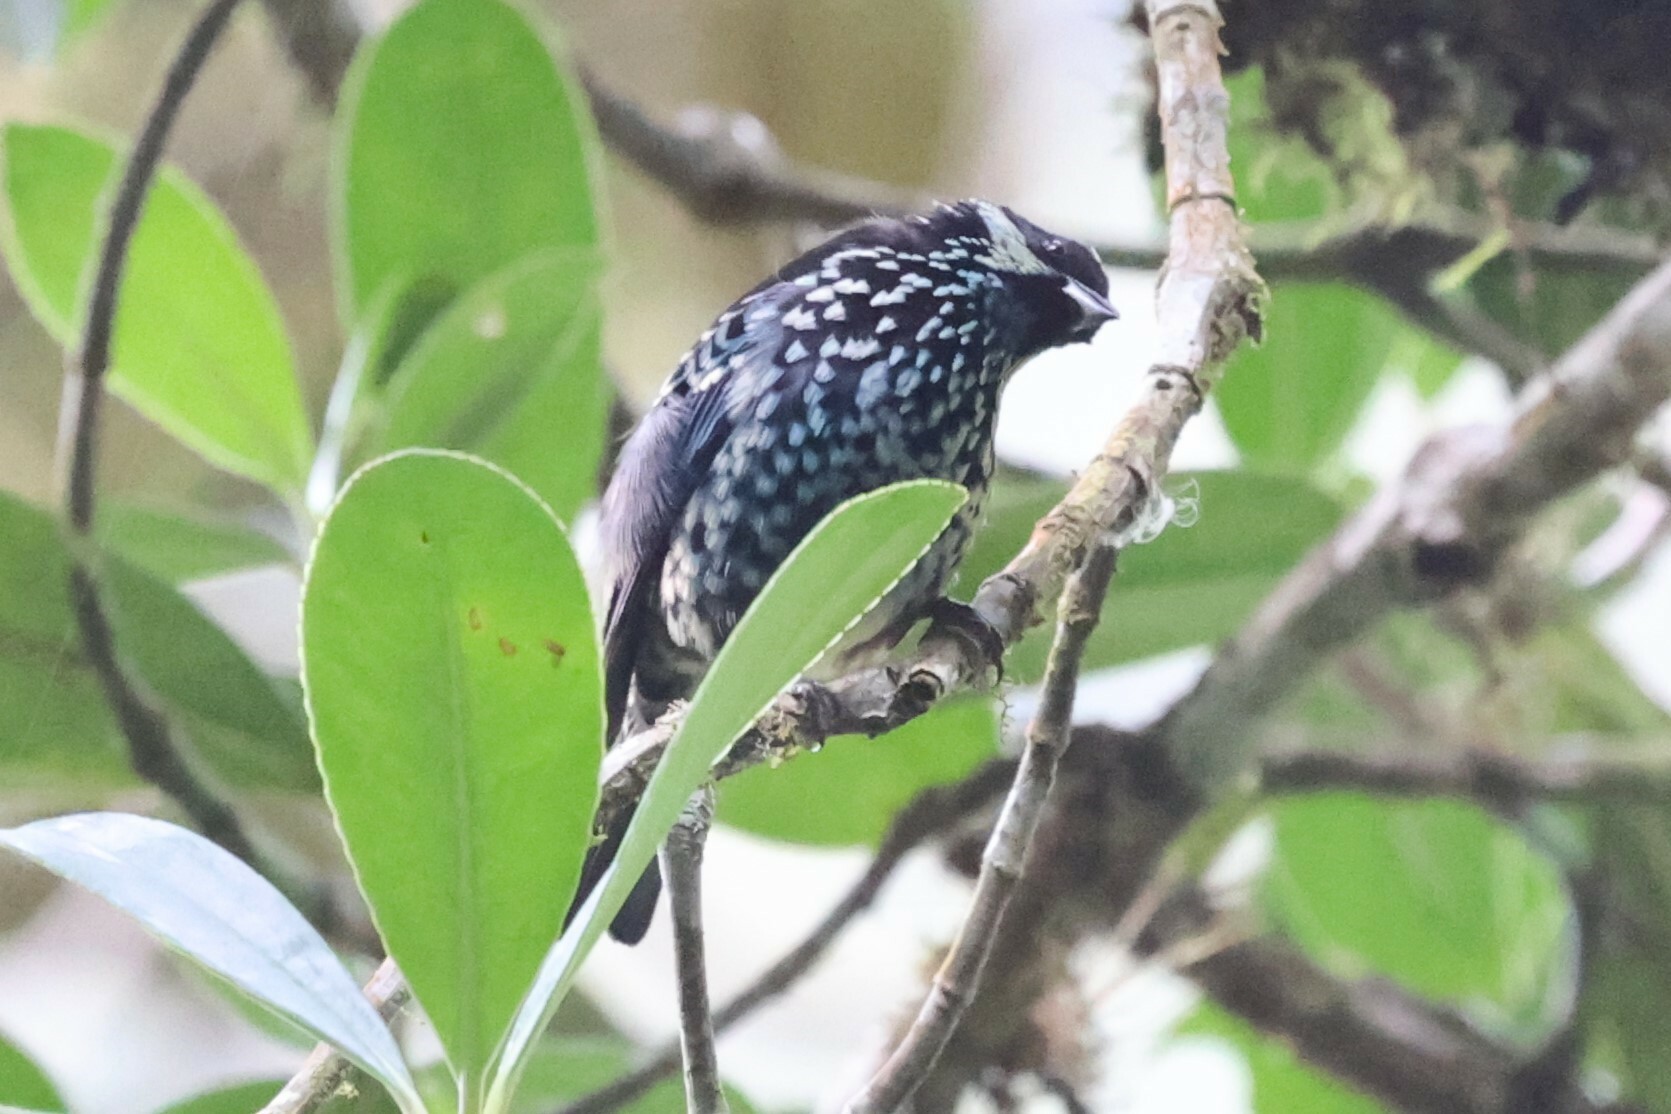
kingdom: Animalia
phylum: Chordata
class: Aves
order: Passeriformes
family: Thraupidae
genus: Tangara
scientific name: Tangara nigroviridis
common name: Beryl-spangled tanager
